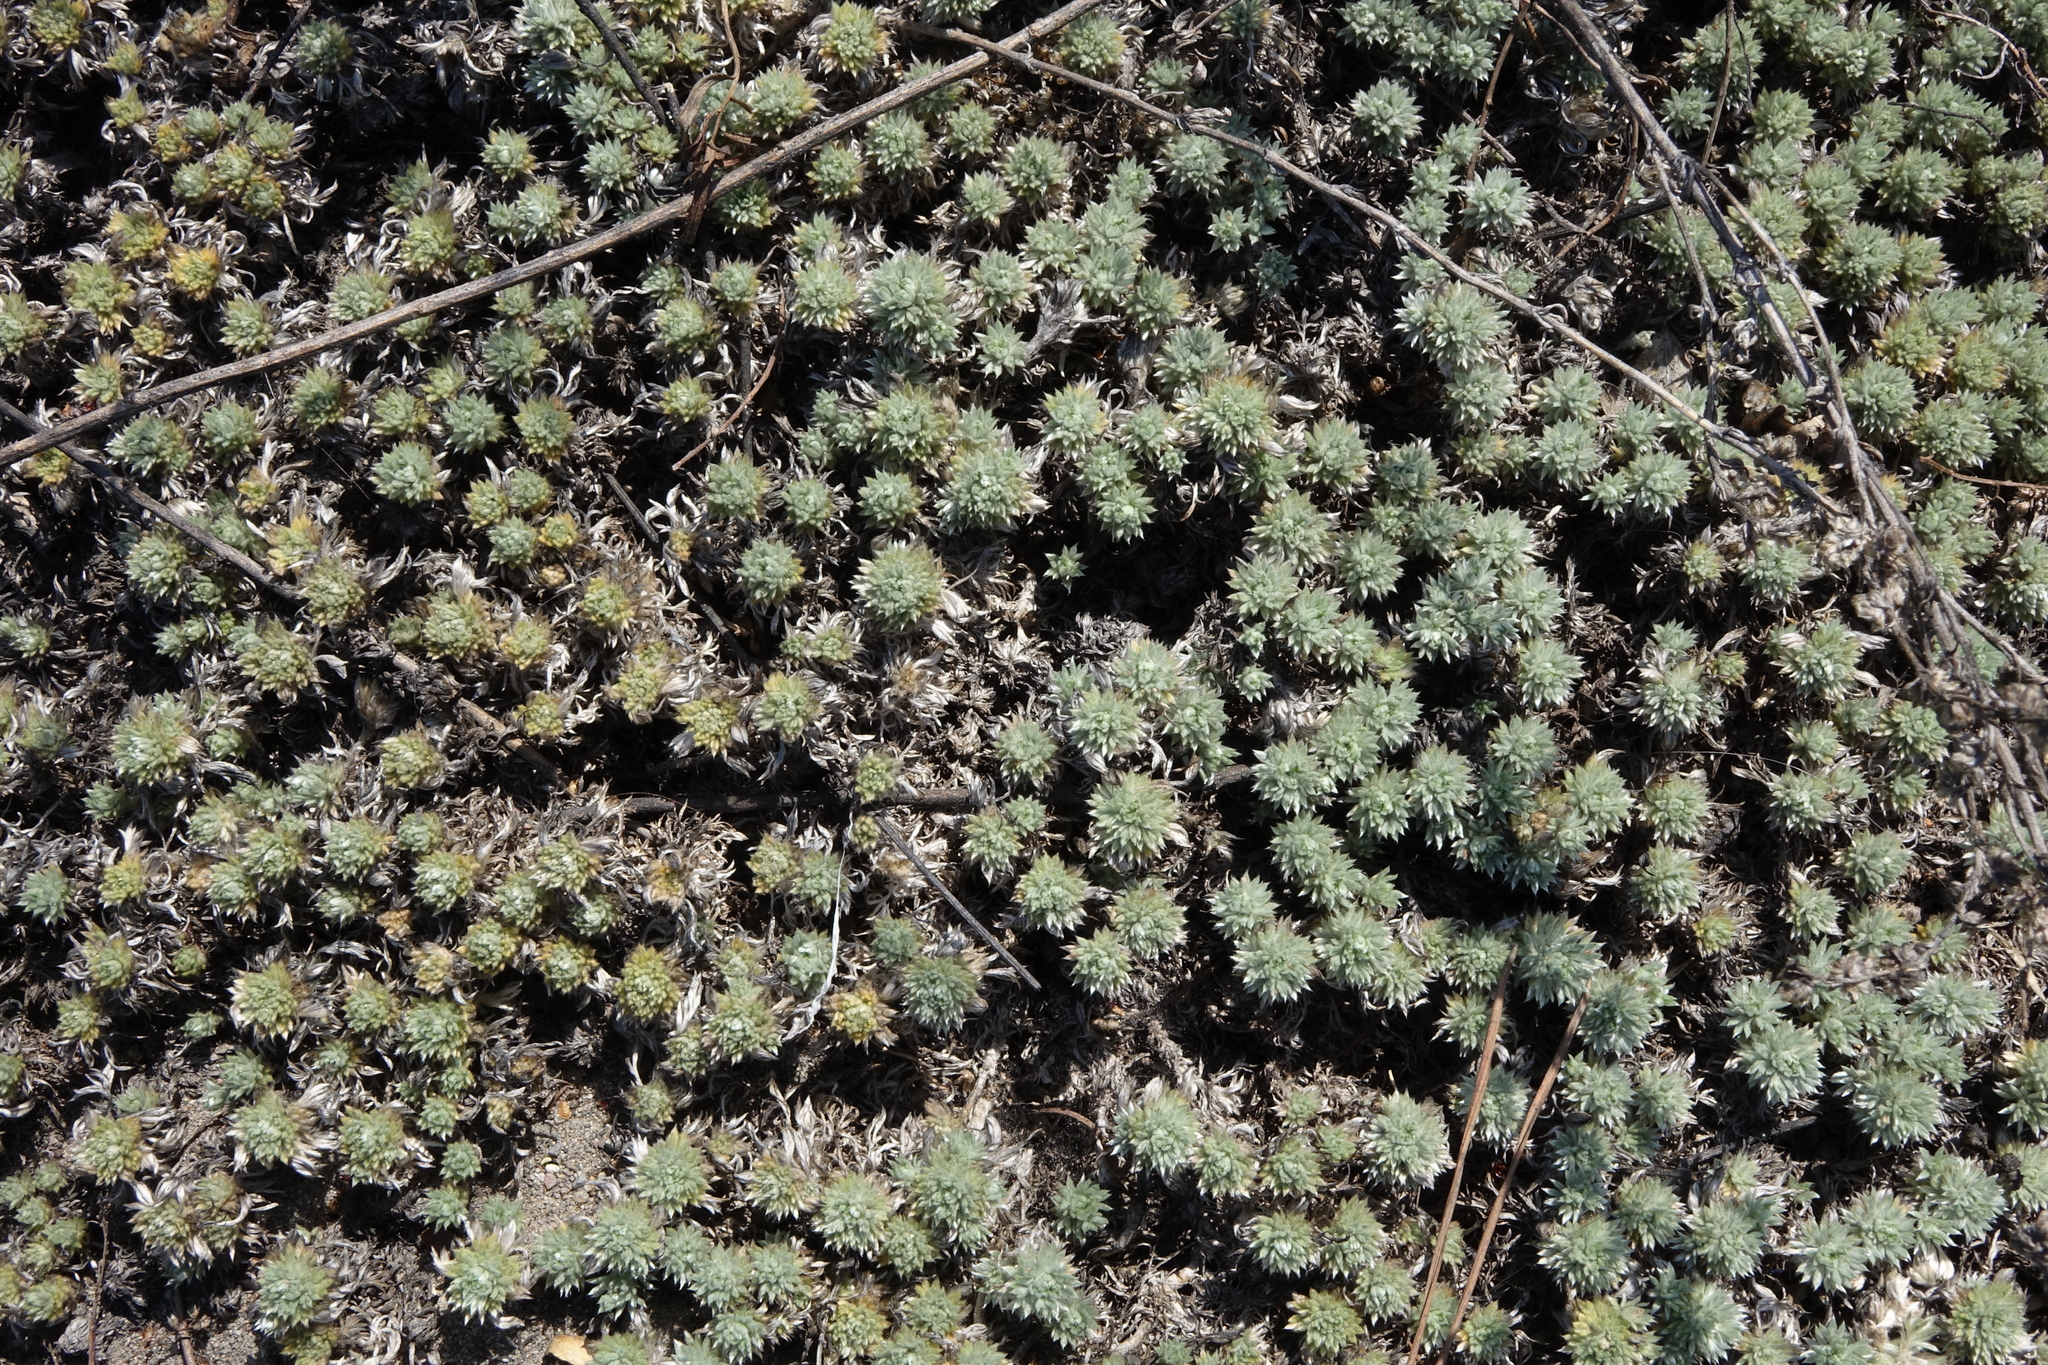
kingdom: Plantae
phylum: Tracheophyta
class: Magnoliopsida
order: Asterales
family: Asteraceae
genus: Artemisia
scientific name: Artemisia frigida
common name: Prairie sagewort
